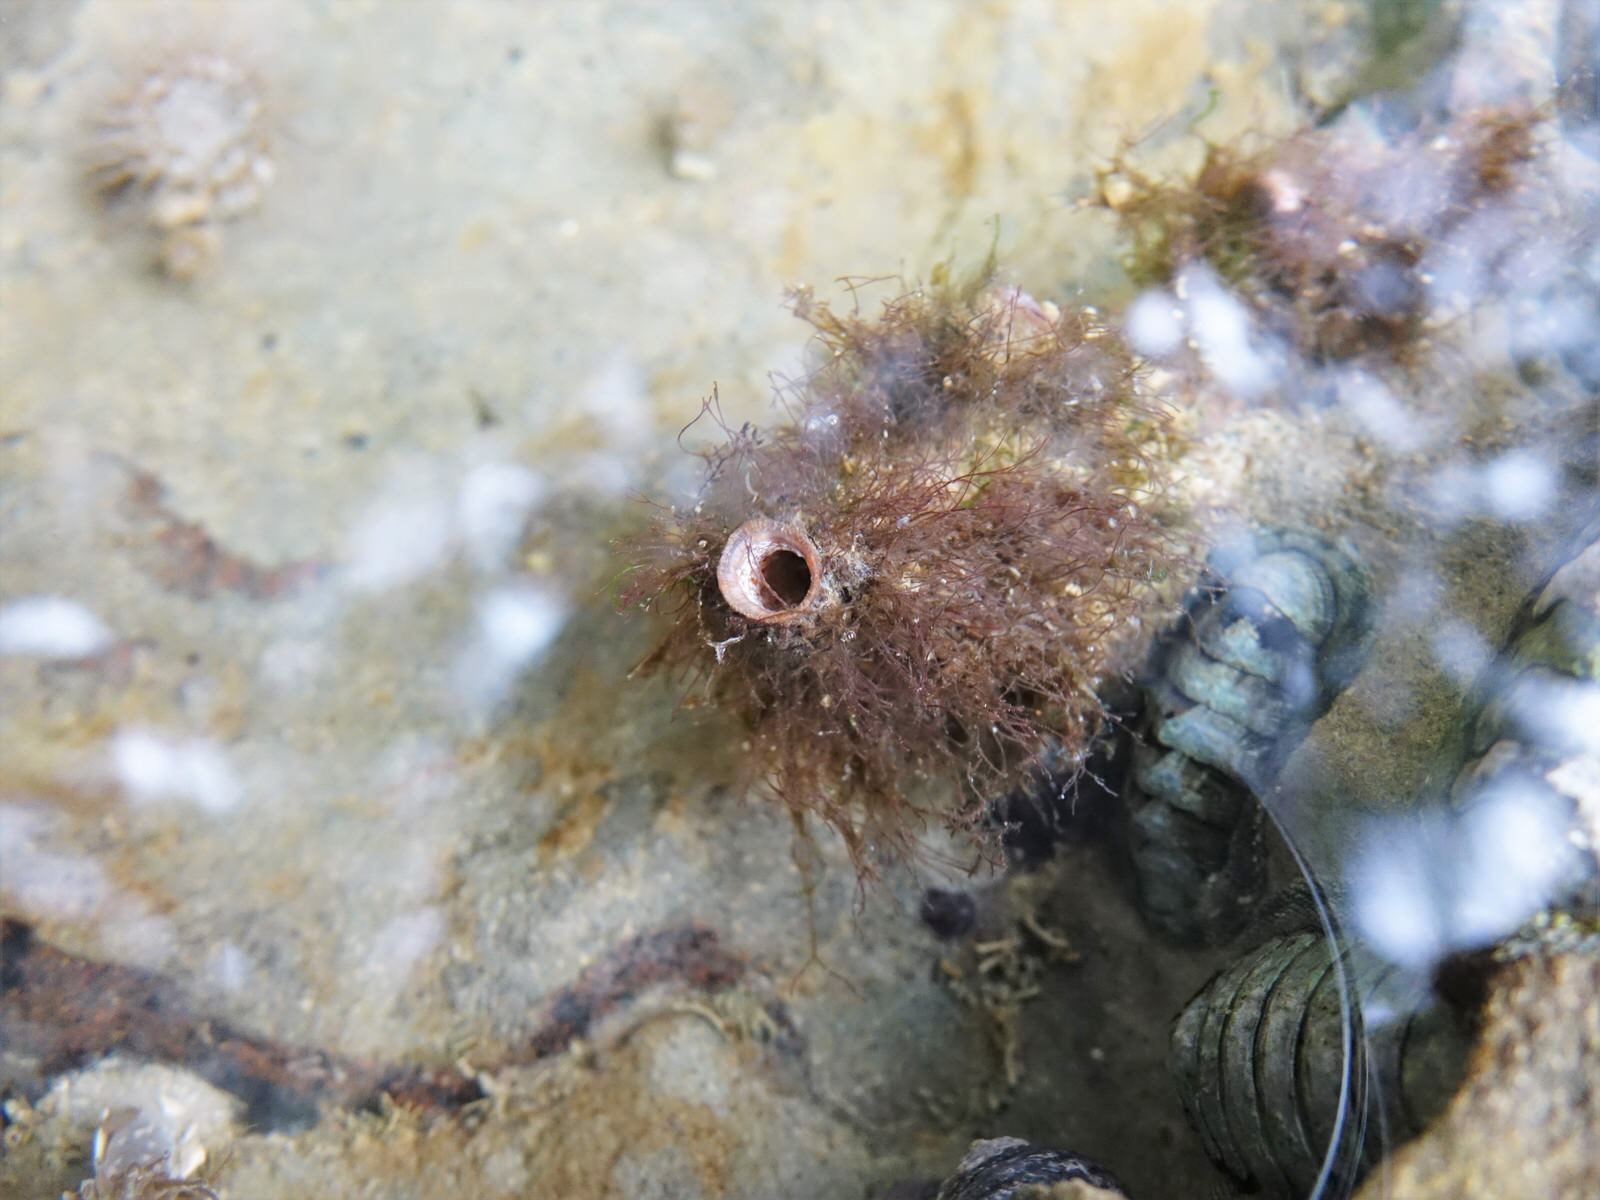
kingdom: Animalia
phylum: Chordata
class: Ascidiacea
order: Stolidobranchia
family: Styelidae
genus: Asterocarpa
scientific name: Asterocarpa humilis
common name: Compass sea squirt
